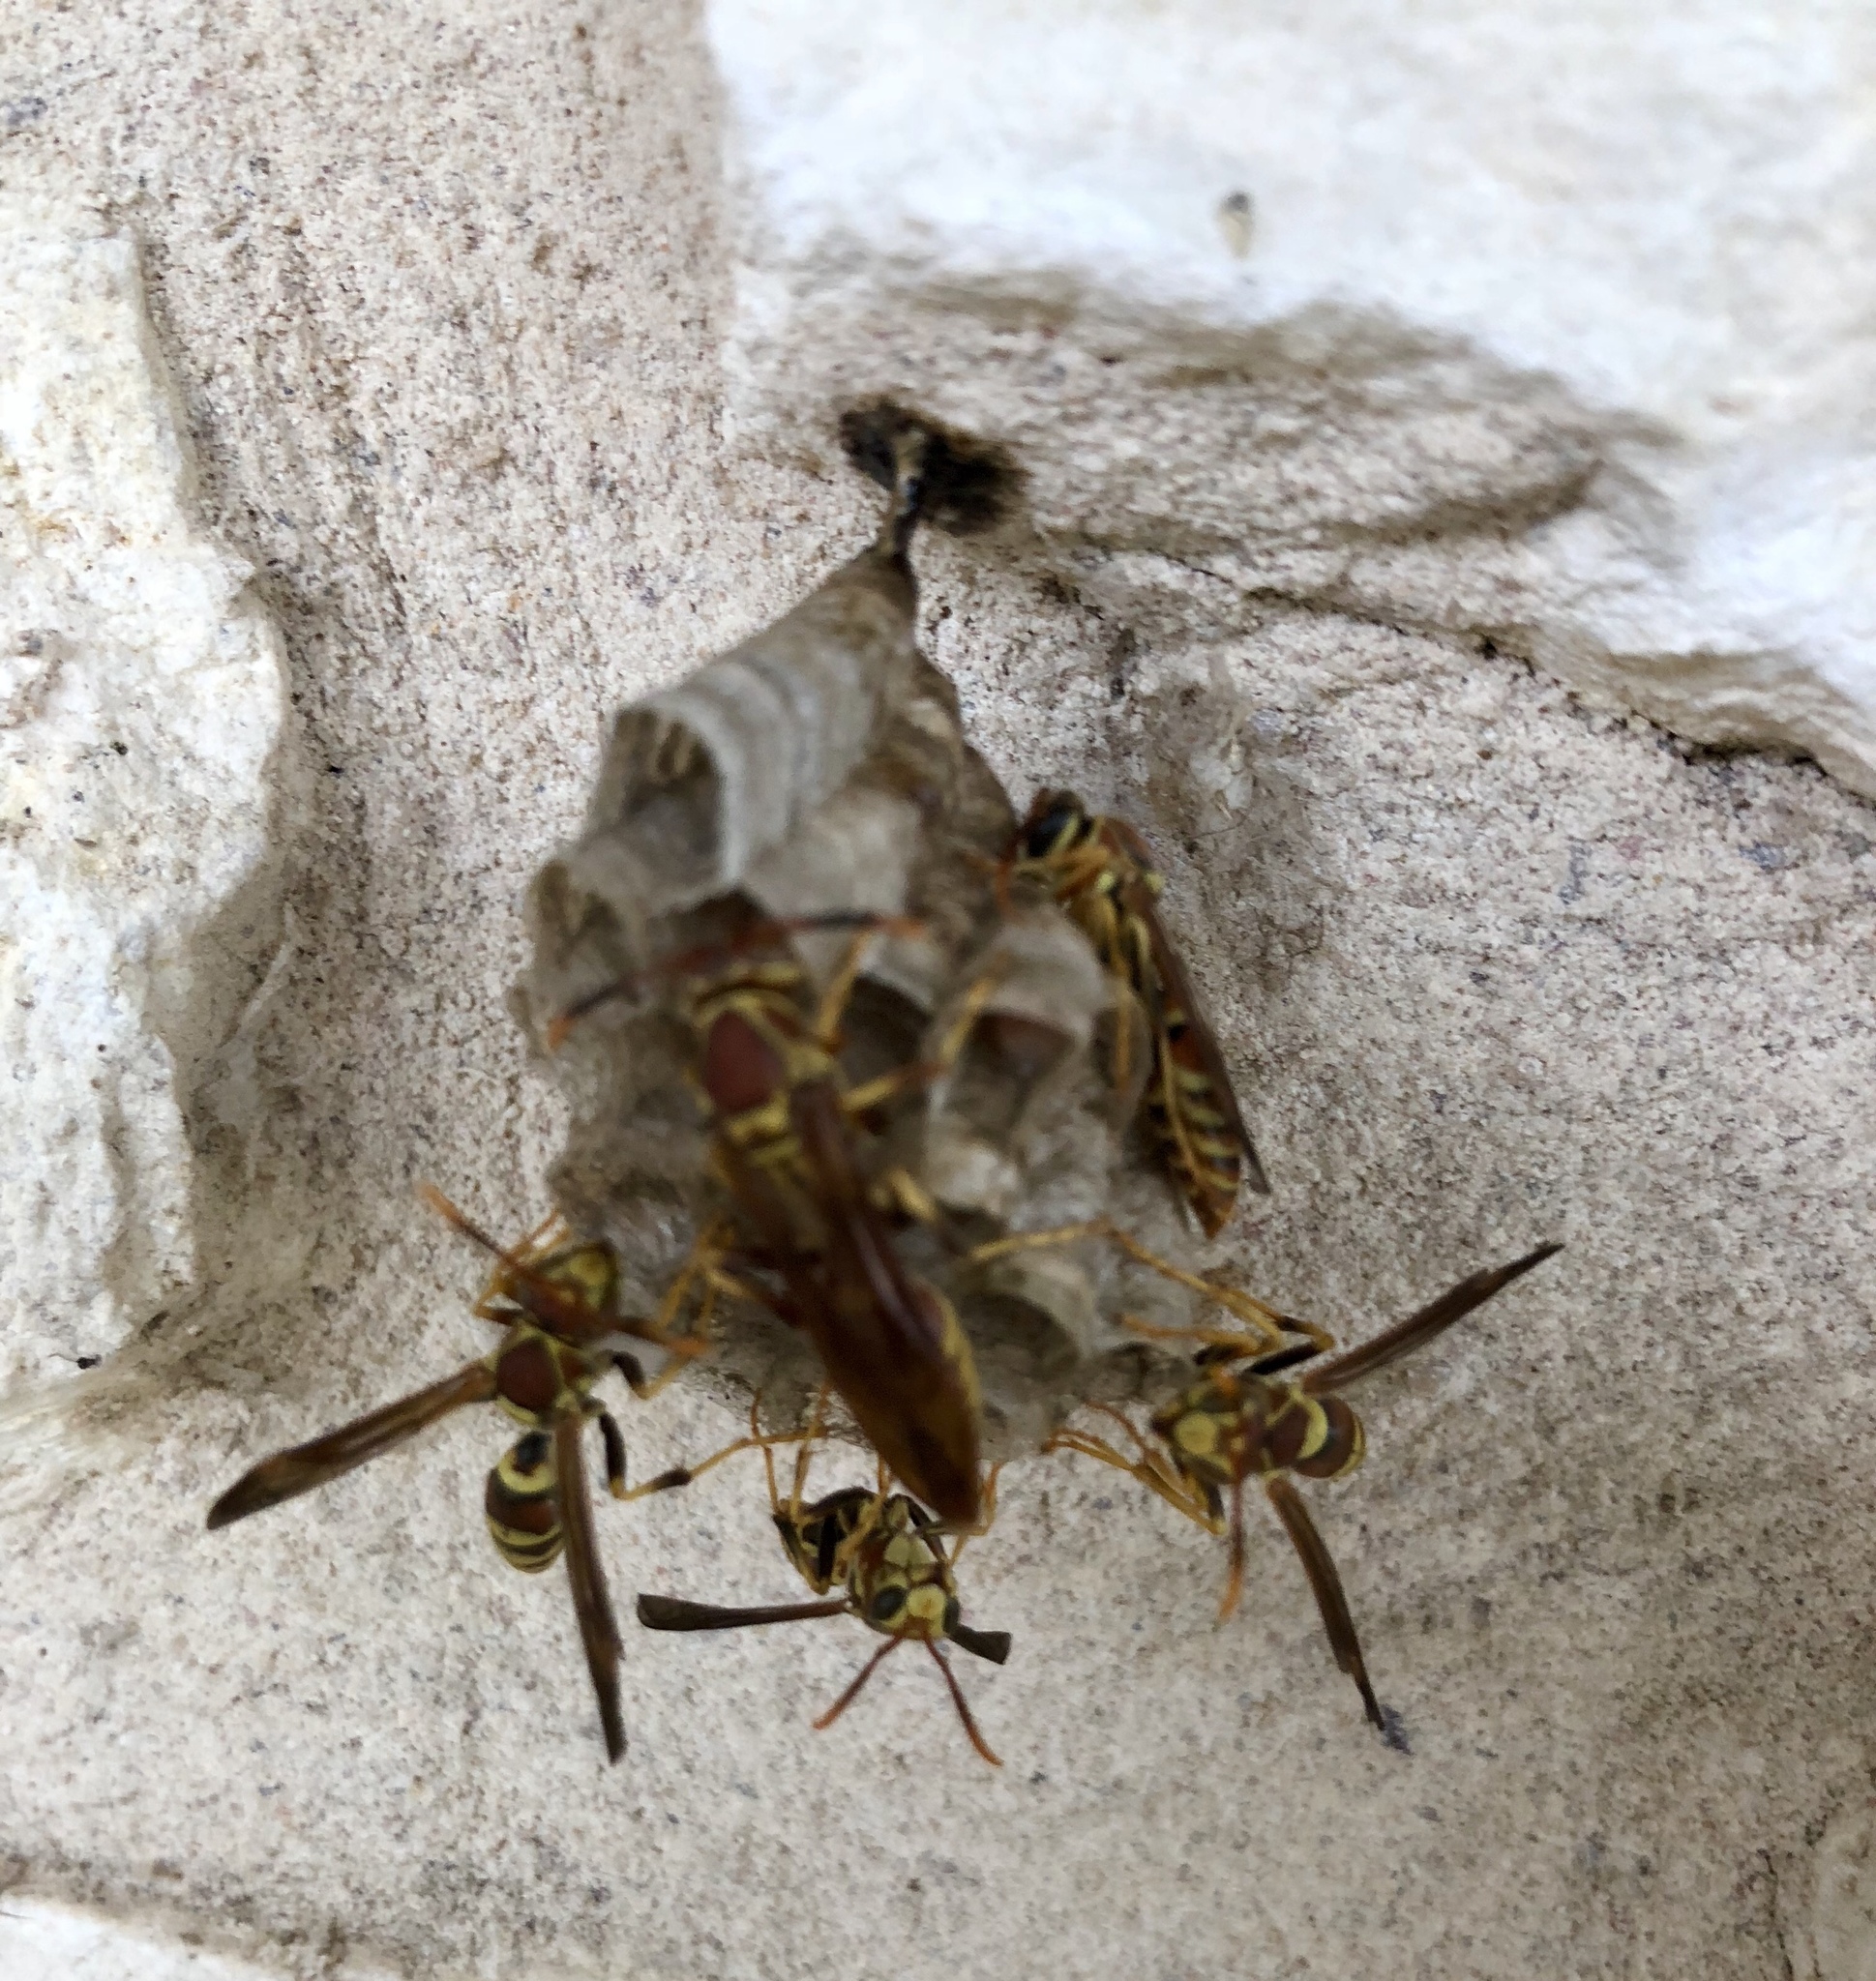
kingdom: Animalia
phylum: Arthropoda
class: Insecta
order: Hymenoptera
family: Eumenidae
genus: Polistes
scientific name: Polistes exclamans
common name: Paper wasp
